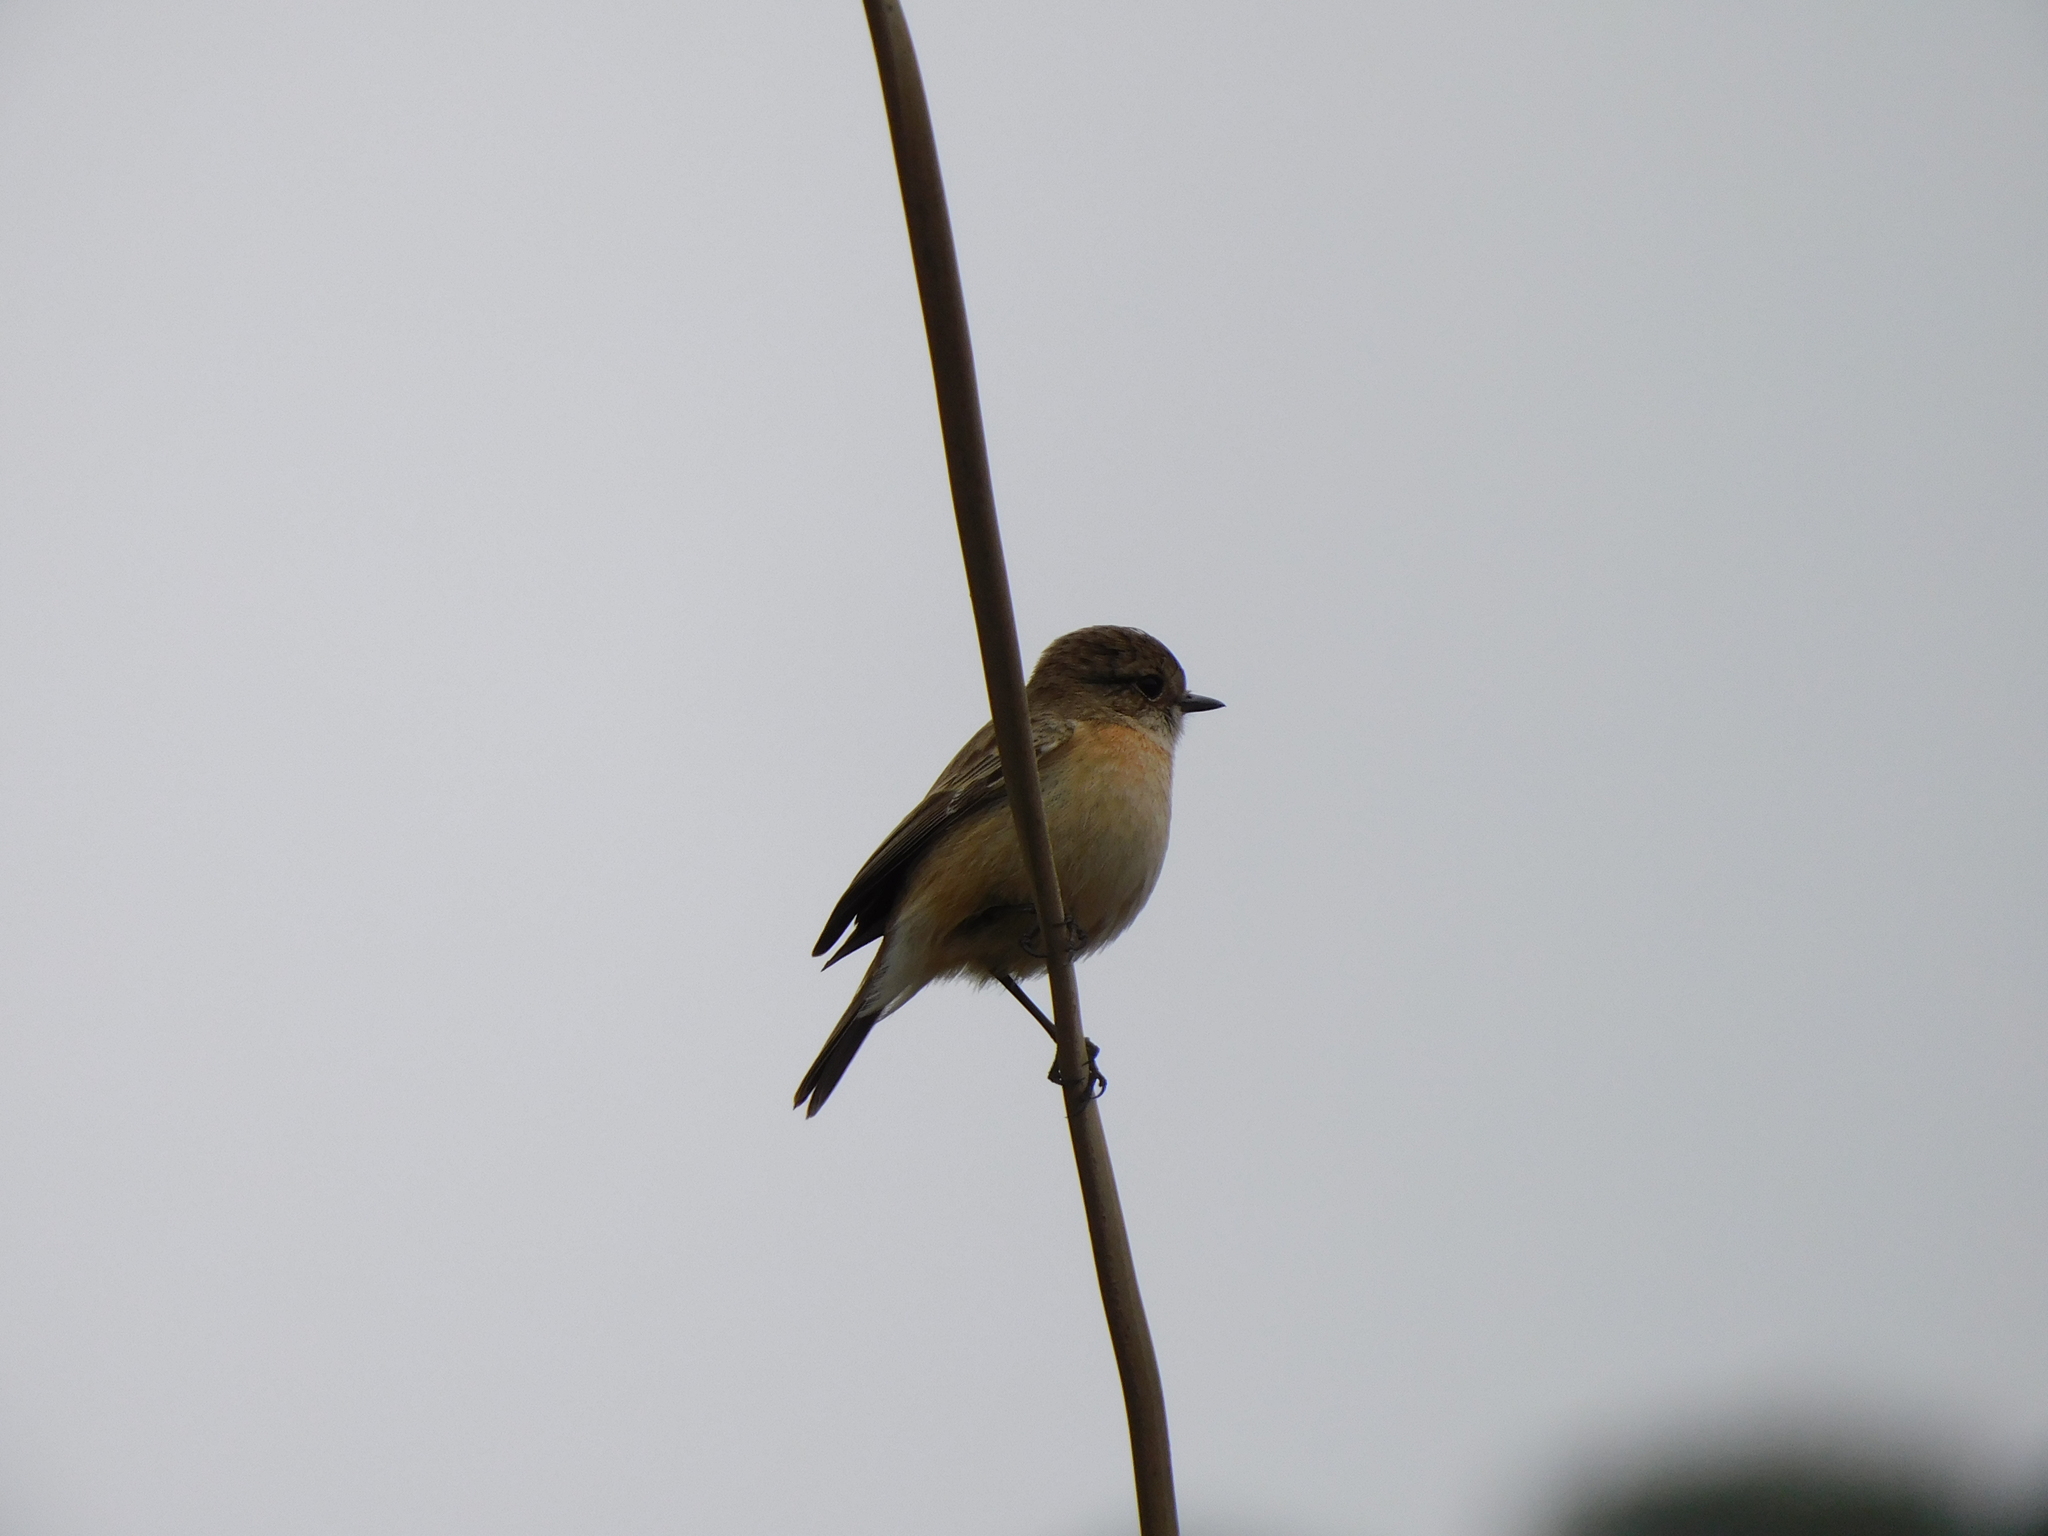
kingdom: Animalia
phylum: Chordata
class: Aves
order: Passeriformes
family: Muscicapidae
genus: Saxicola
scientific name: Saxicola maurus
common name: Siberian stonechat
